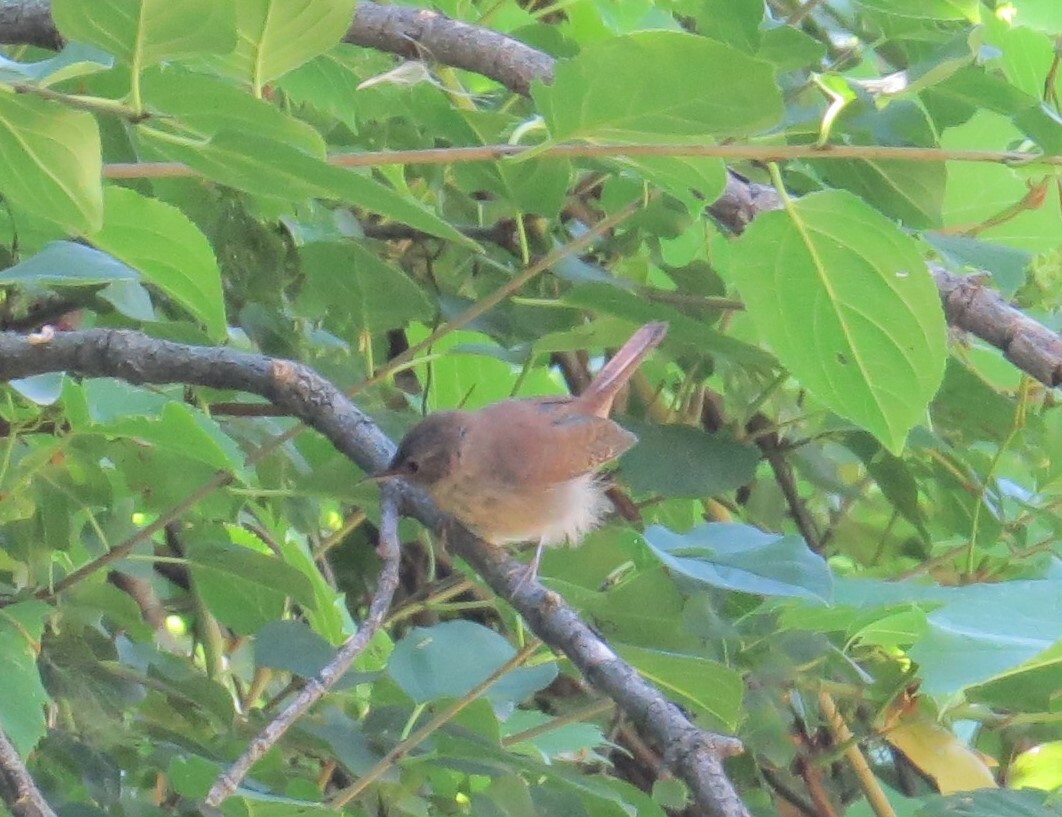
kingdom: Animalia
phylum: Chordata
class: Aves
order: Passeriformes
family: Troglodytidae
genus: Troglodytes
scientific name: Troglodytes aedon
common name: House wren
